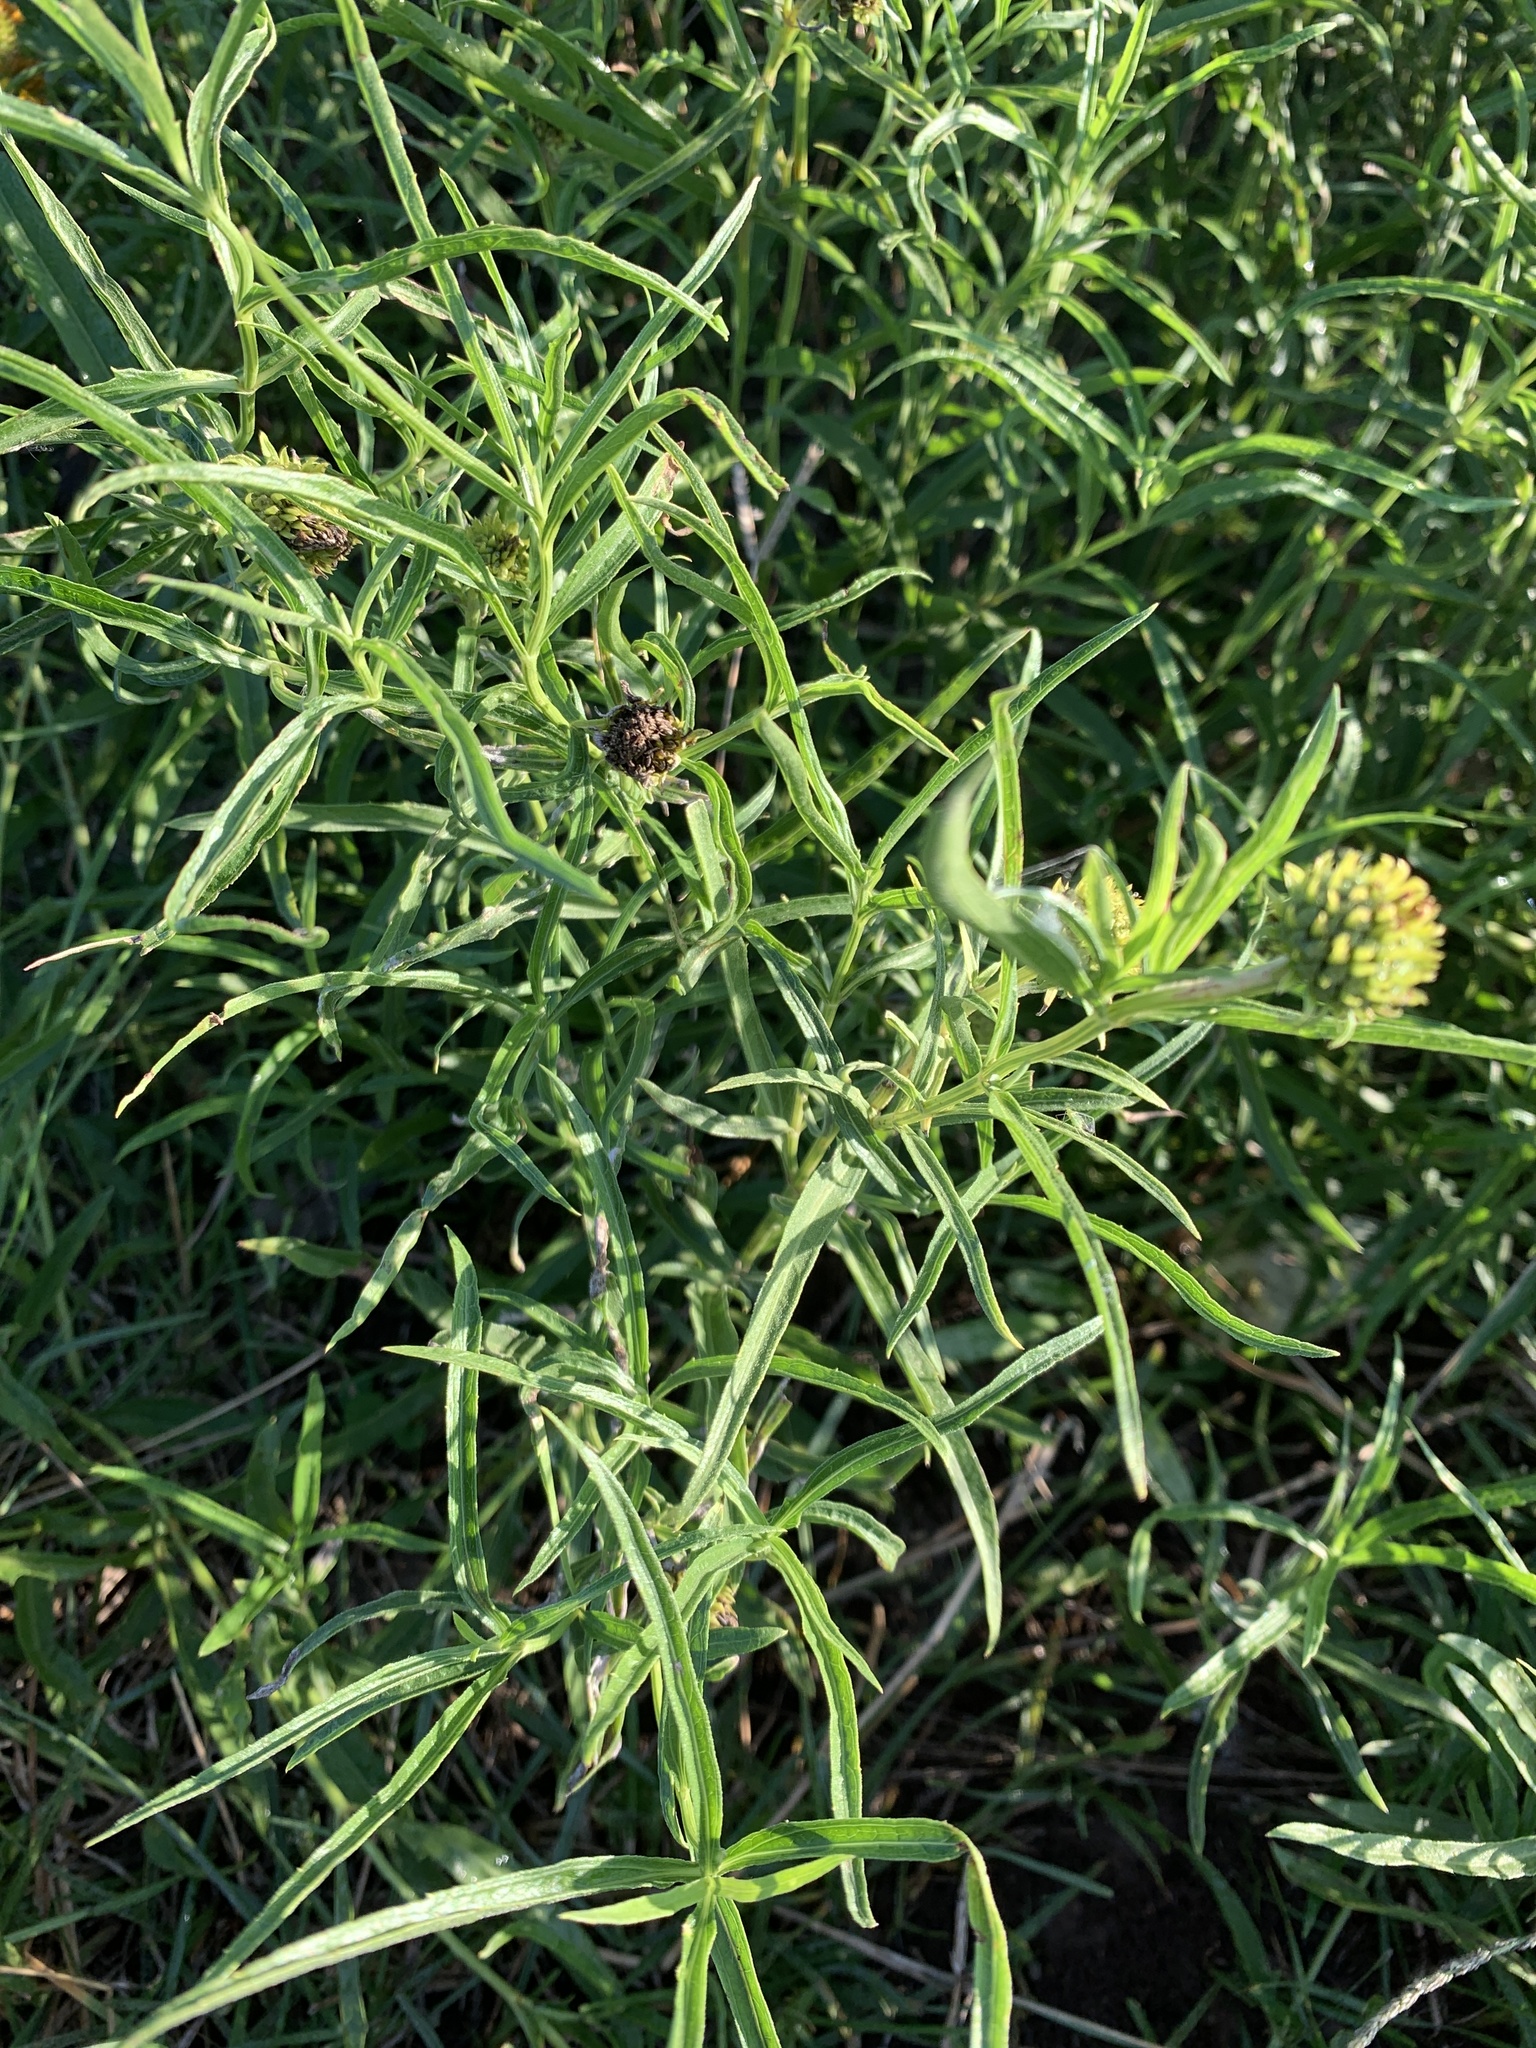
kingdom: Plantae
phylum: Tracheophyta
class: Magnoliopsida
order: Asterales
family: Asteraceae
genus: Pascalia
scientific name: Pascalia glauca
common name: Beach creeping oxeye
